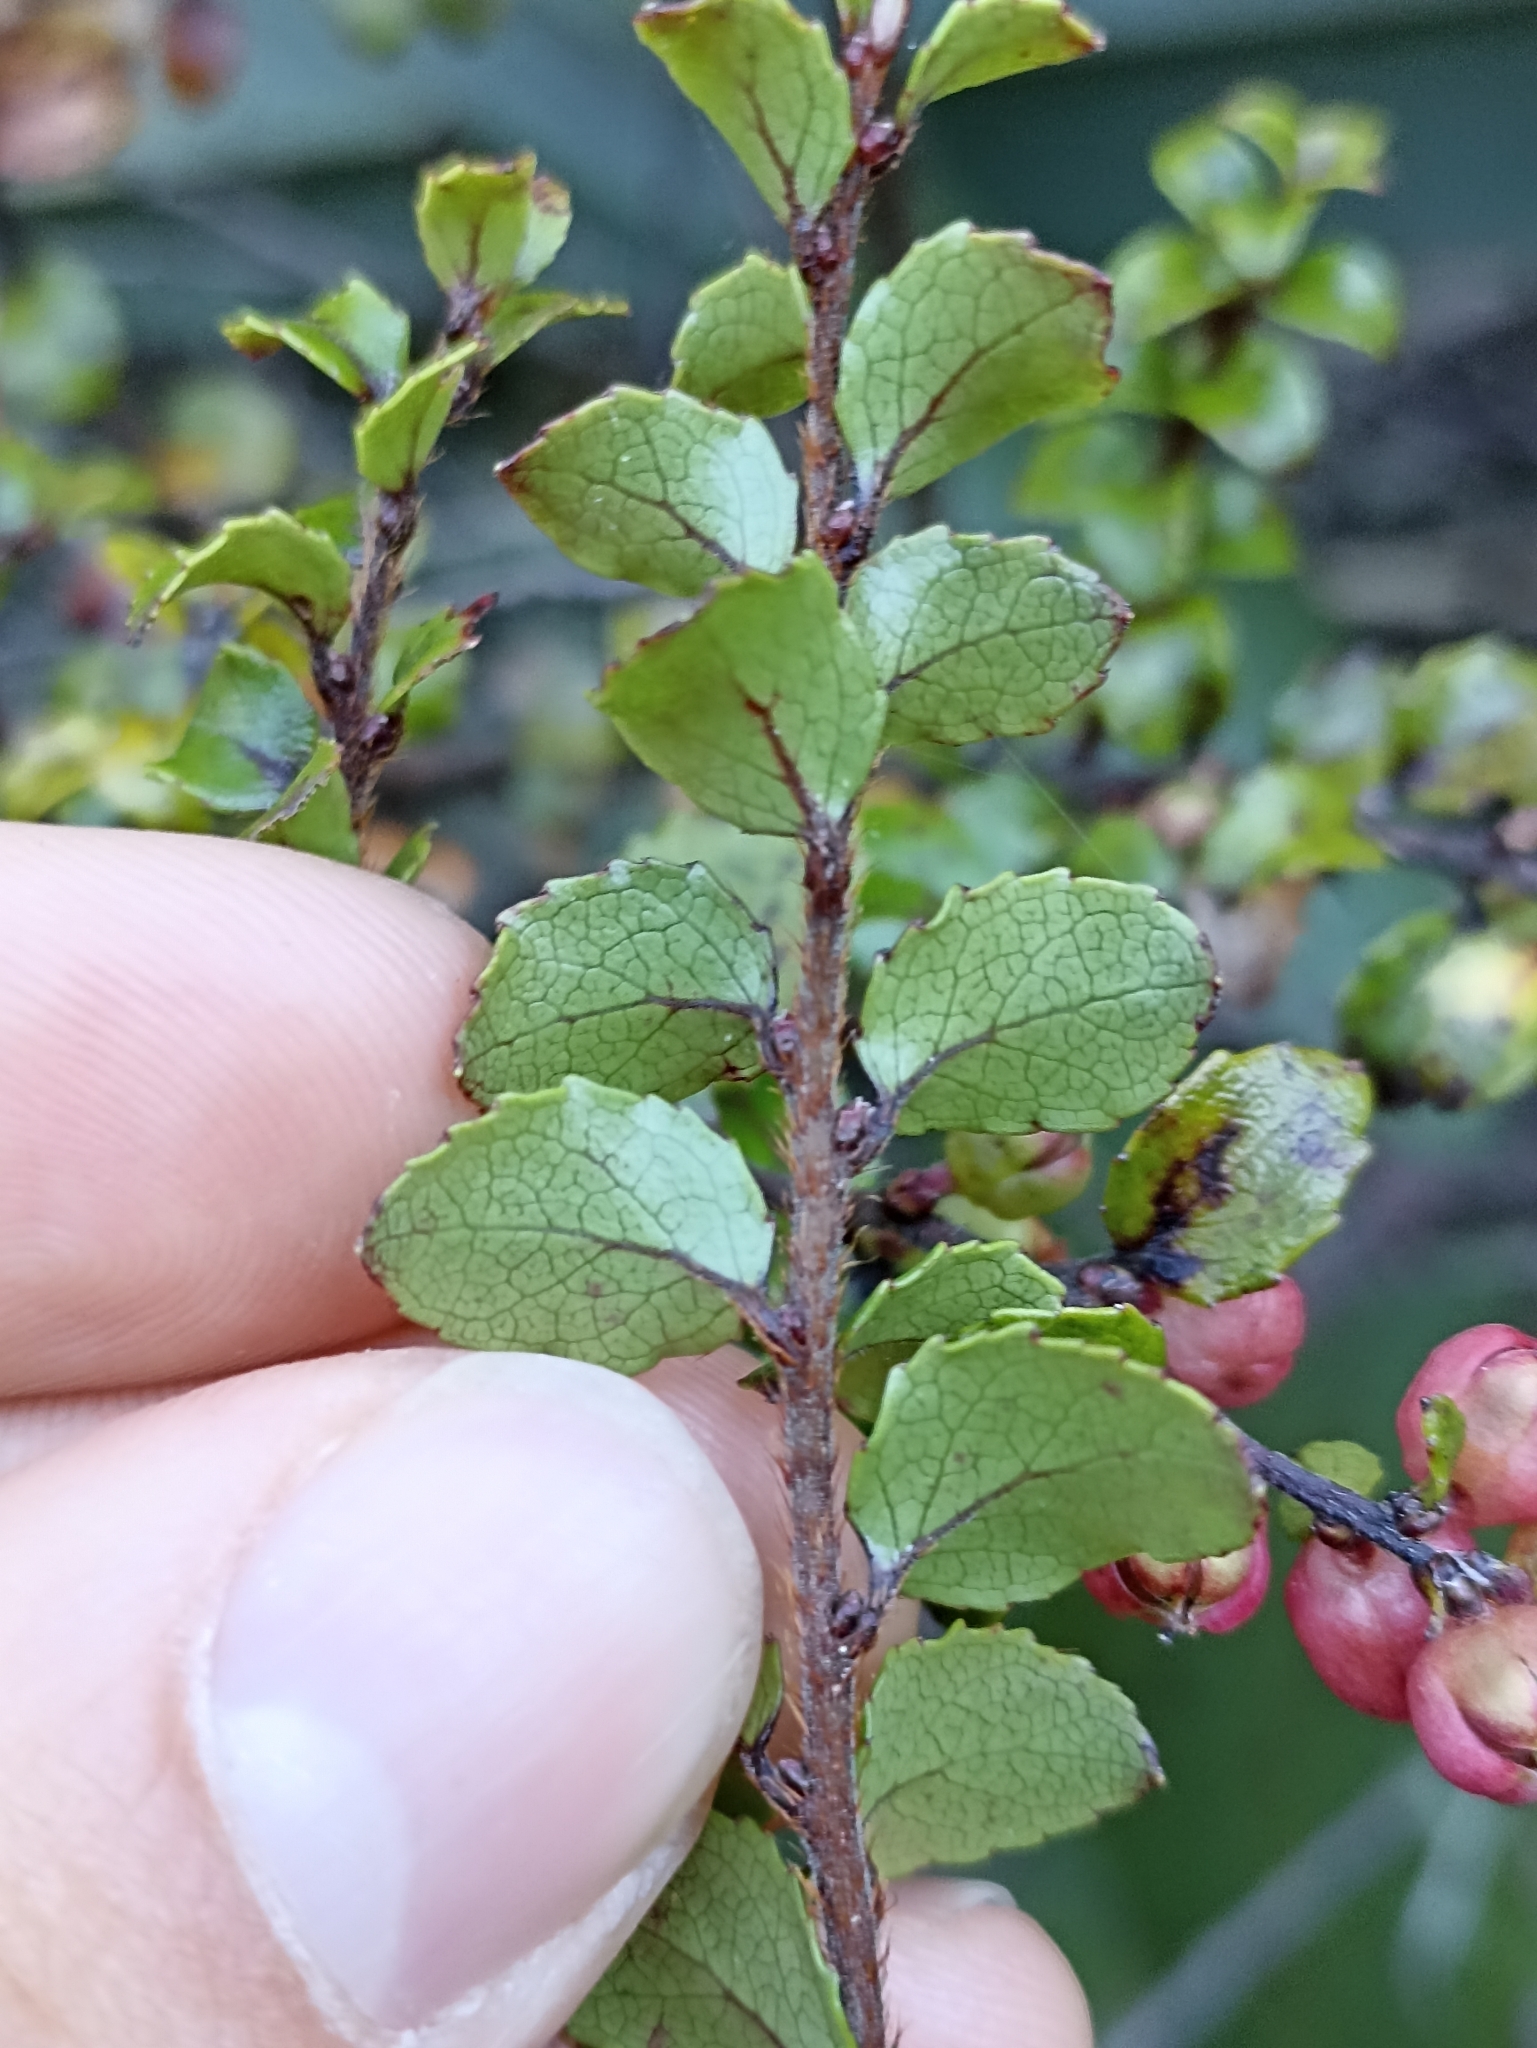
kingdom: Plantae
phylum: Tracheophyta
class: Magnoliopsida
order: Ericales
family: Ericaceae
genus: Gaultheria
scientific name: Gaultheria antipoda
